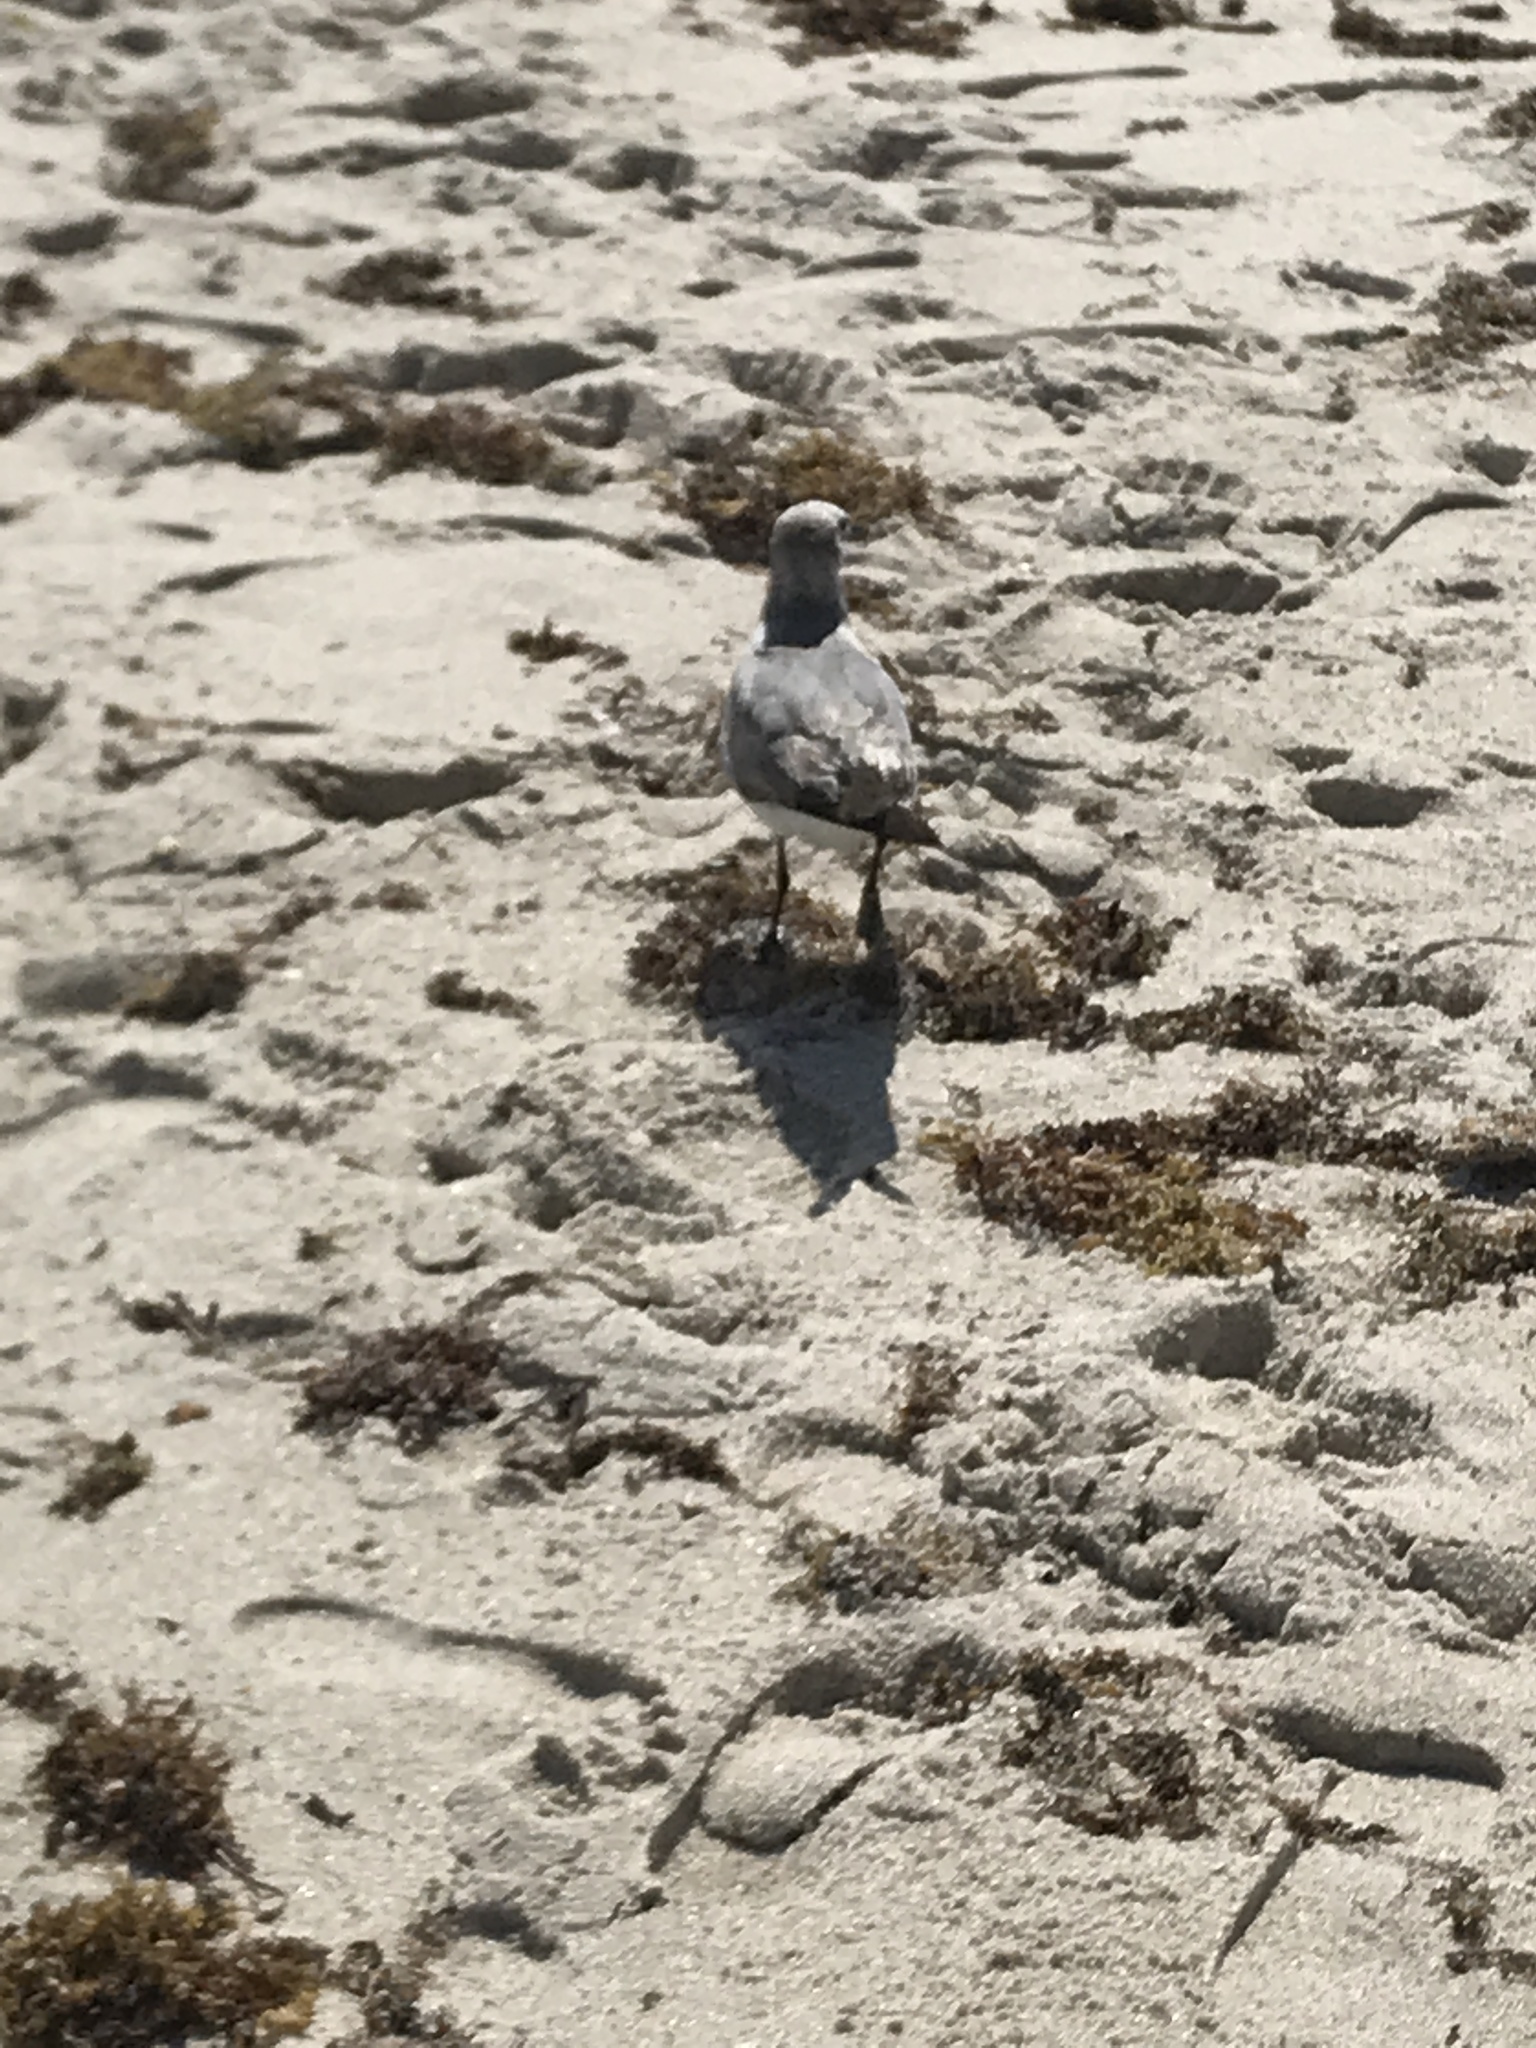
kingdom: Animalia
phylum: Chordata
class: Aves
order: Charadriiformes
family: Laridae
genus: Leucophaeus
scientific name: Leucophaeus atricilla
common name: Laughing gull
